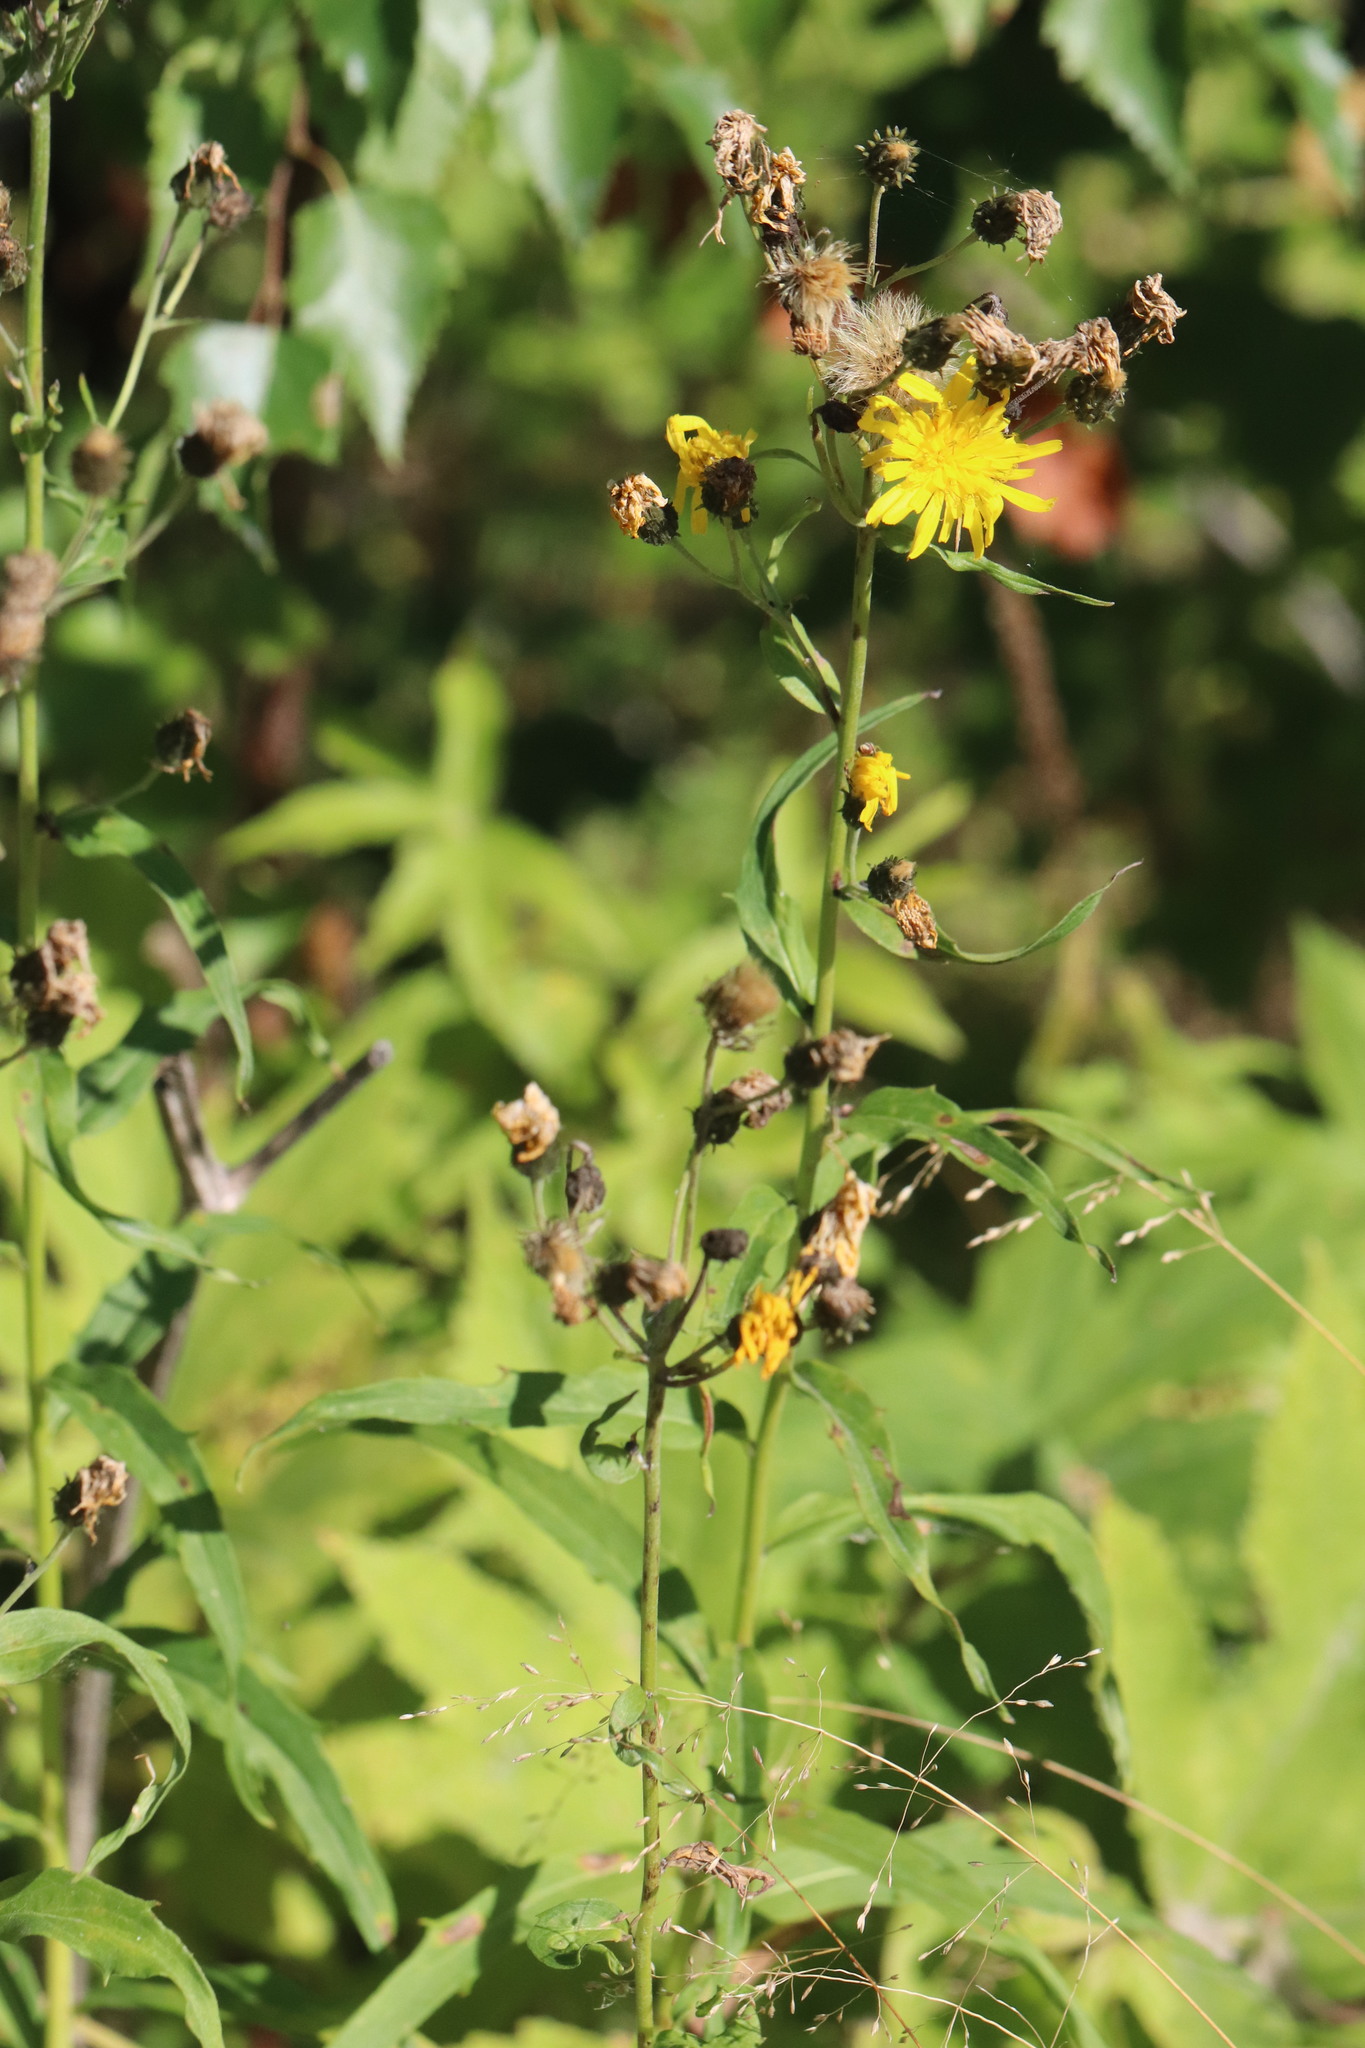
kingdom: Plantae
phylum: Tracheophyta
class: Magnoliopsida
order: Asterales
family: Asteraceae
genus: Hieracium
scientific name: Hieracium umbellatum
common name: Northern hawkweed
